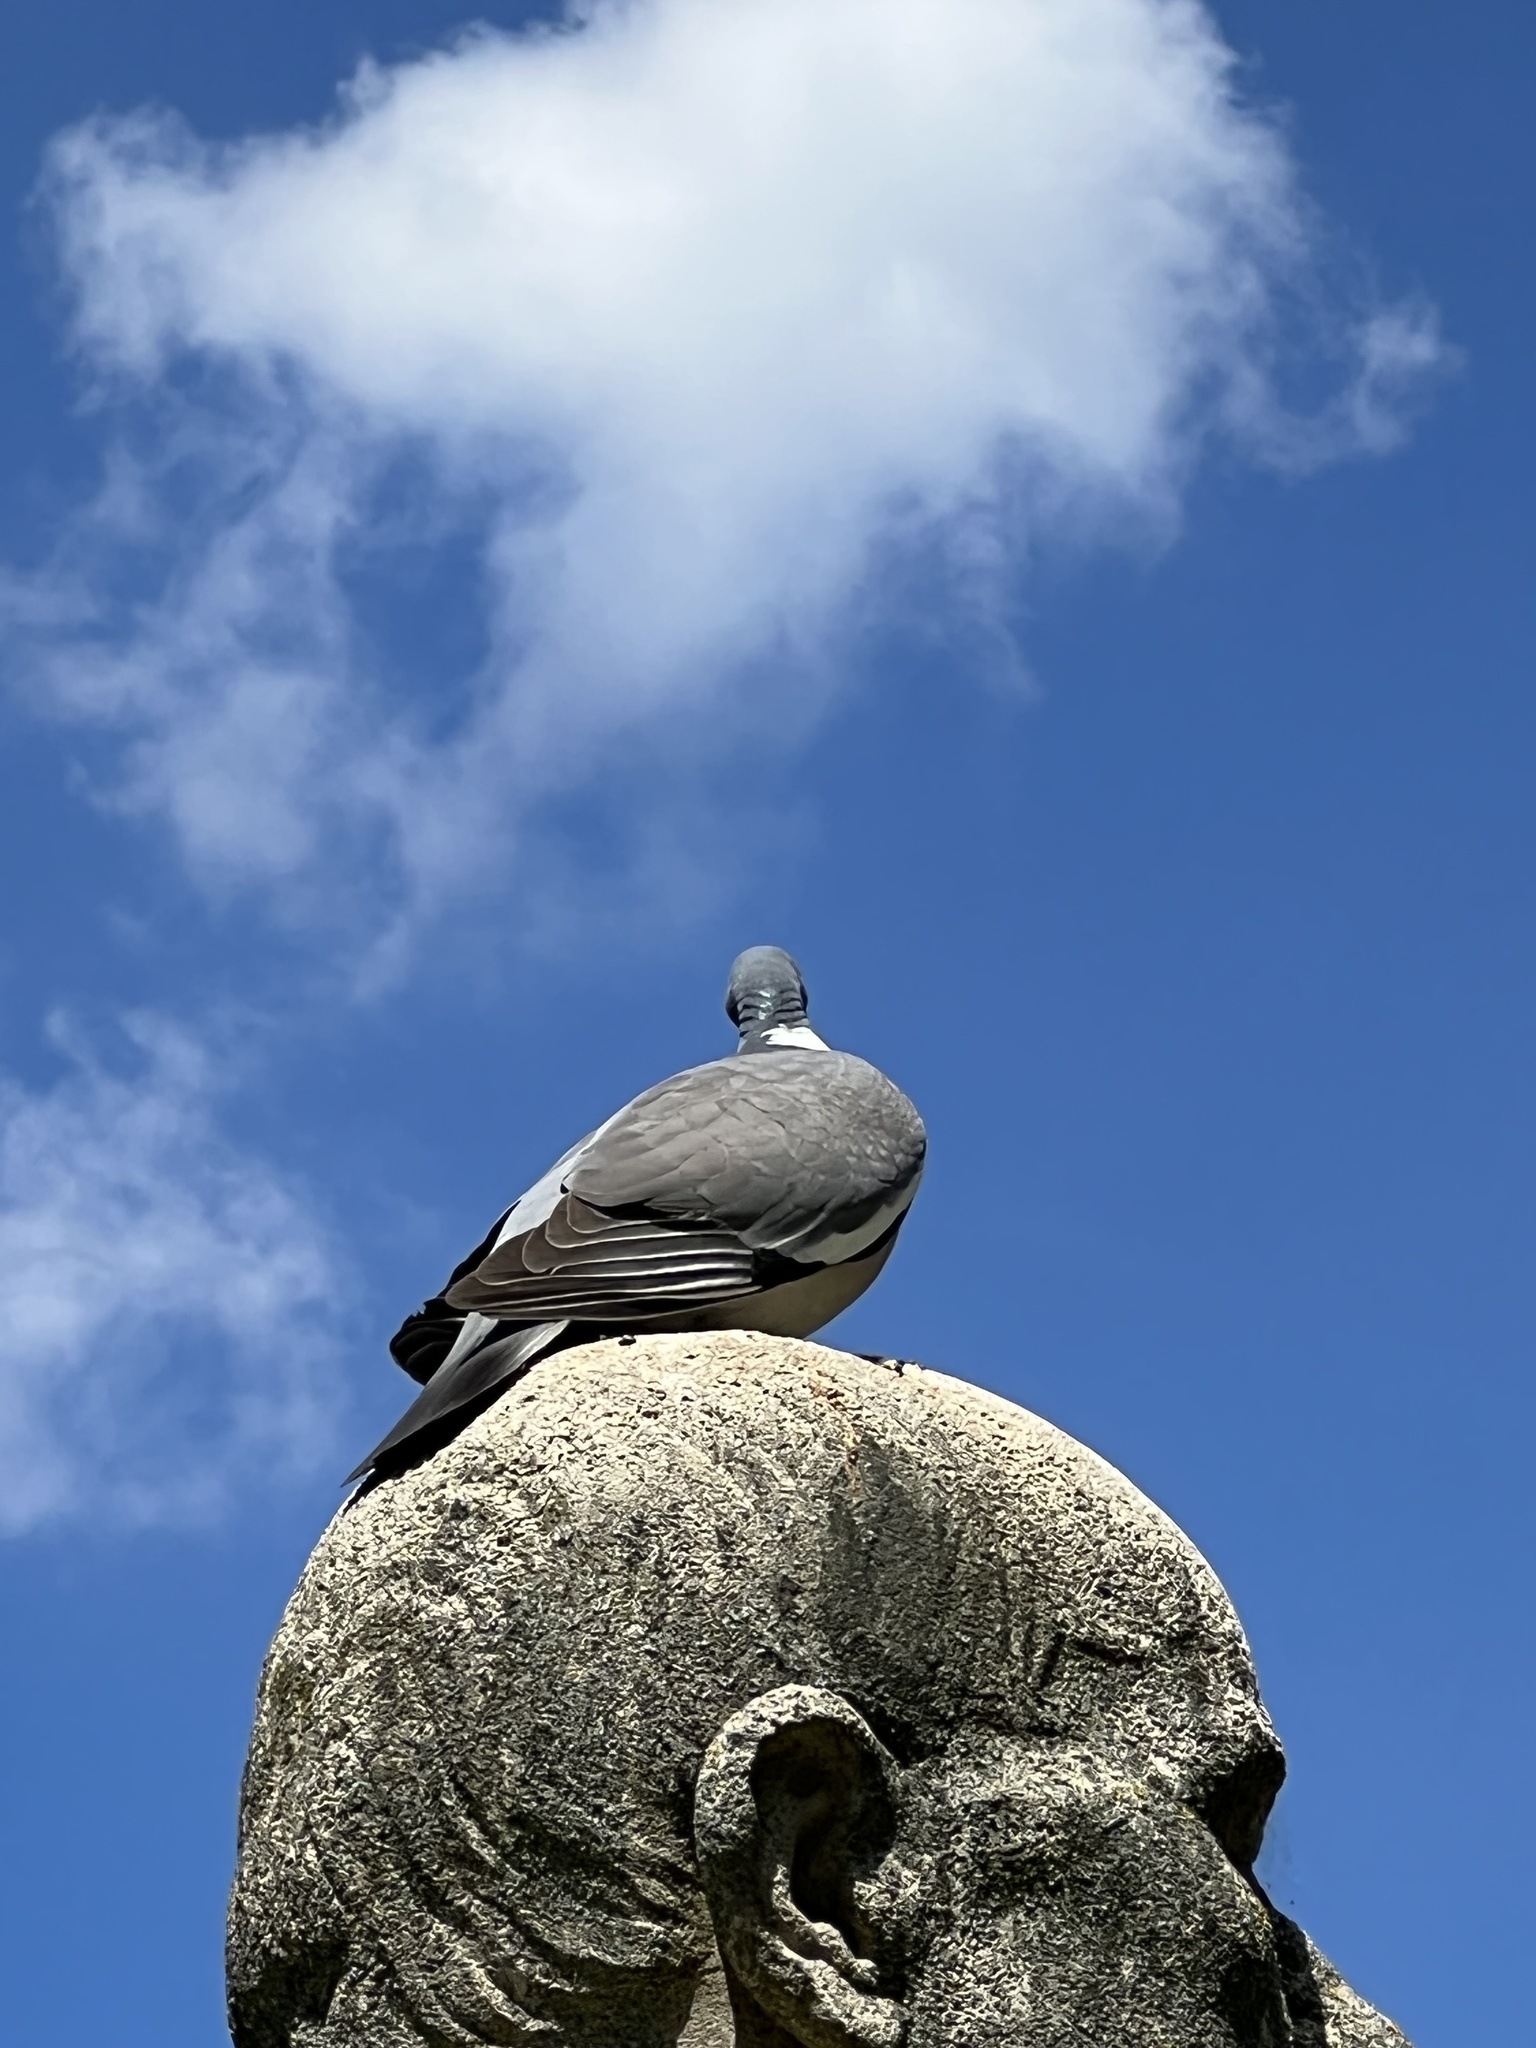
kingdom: Animalia
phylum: Chordata
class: Aves
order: Columbiformes
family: Columbidae
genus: Columba
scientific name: Columba palumbus
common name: Common wood pigeon
